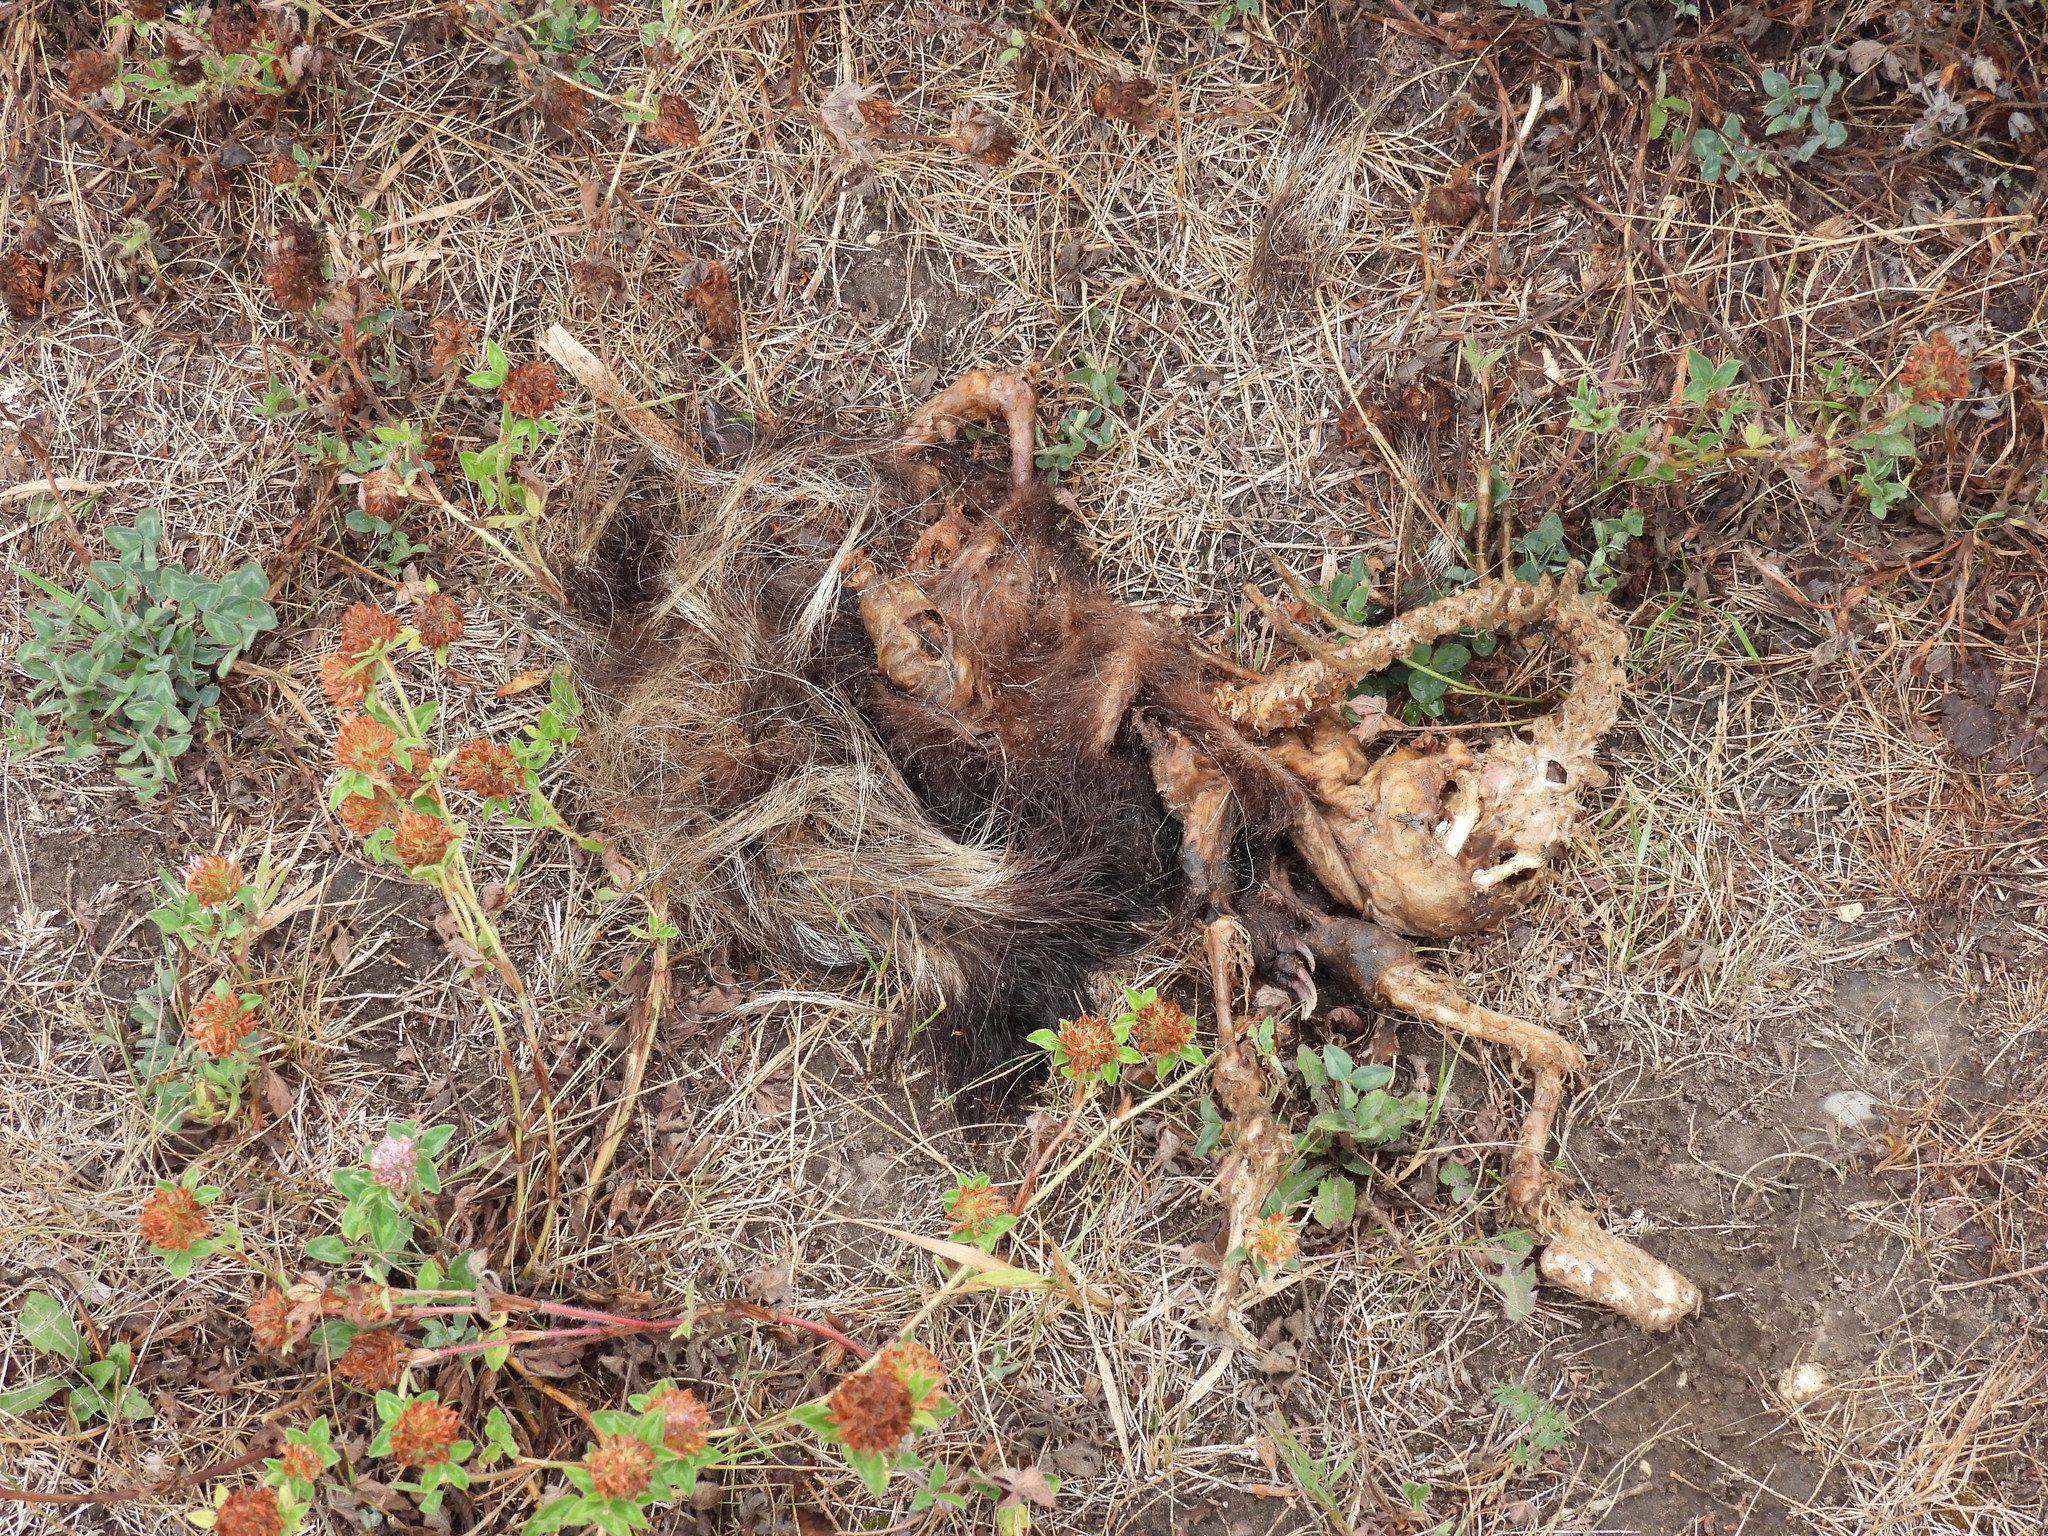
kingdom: Animalia
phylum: Chordata
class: Mammalia
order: Carnivora
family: Mephitidae
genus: Mephitis
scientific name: Mephitis mephitis
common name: Striped skunk
